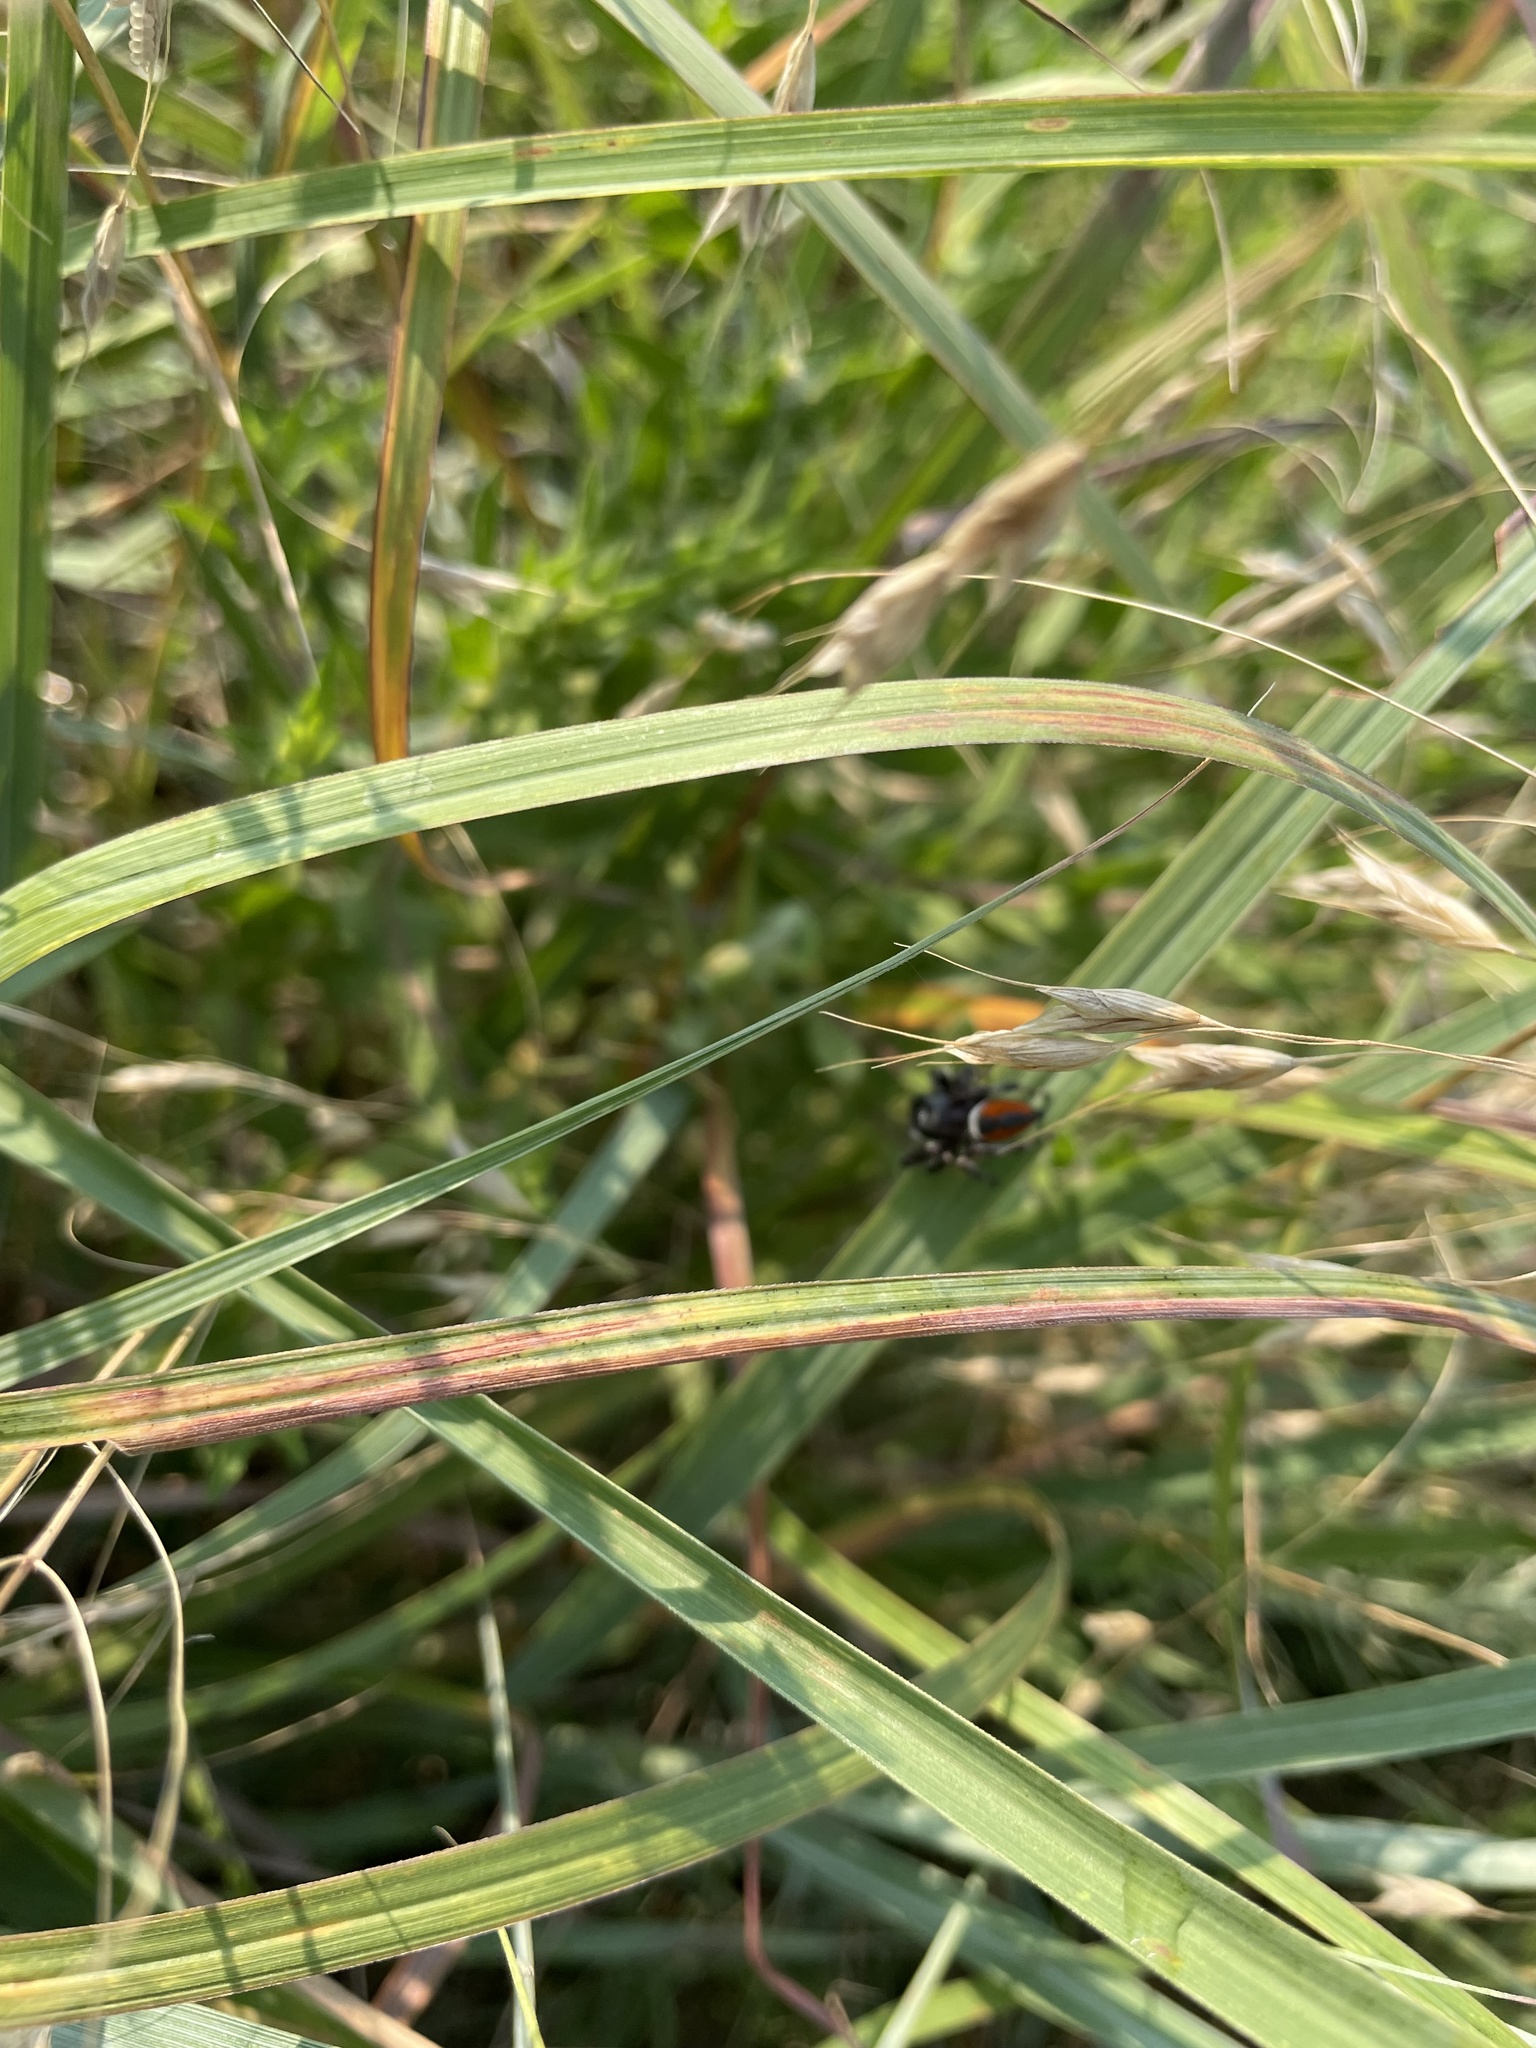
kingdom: Animalia
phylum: Arthropoda
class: Arachnida
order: Araneae
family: Salticidae
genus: Phidippus
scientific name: Phidippus clarus
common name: Brilliant jumping spider
